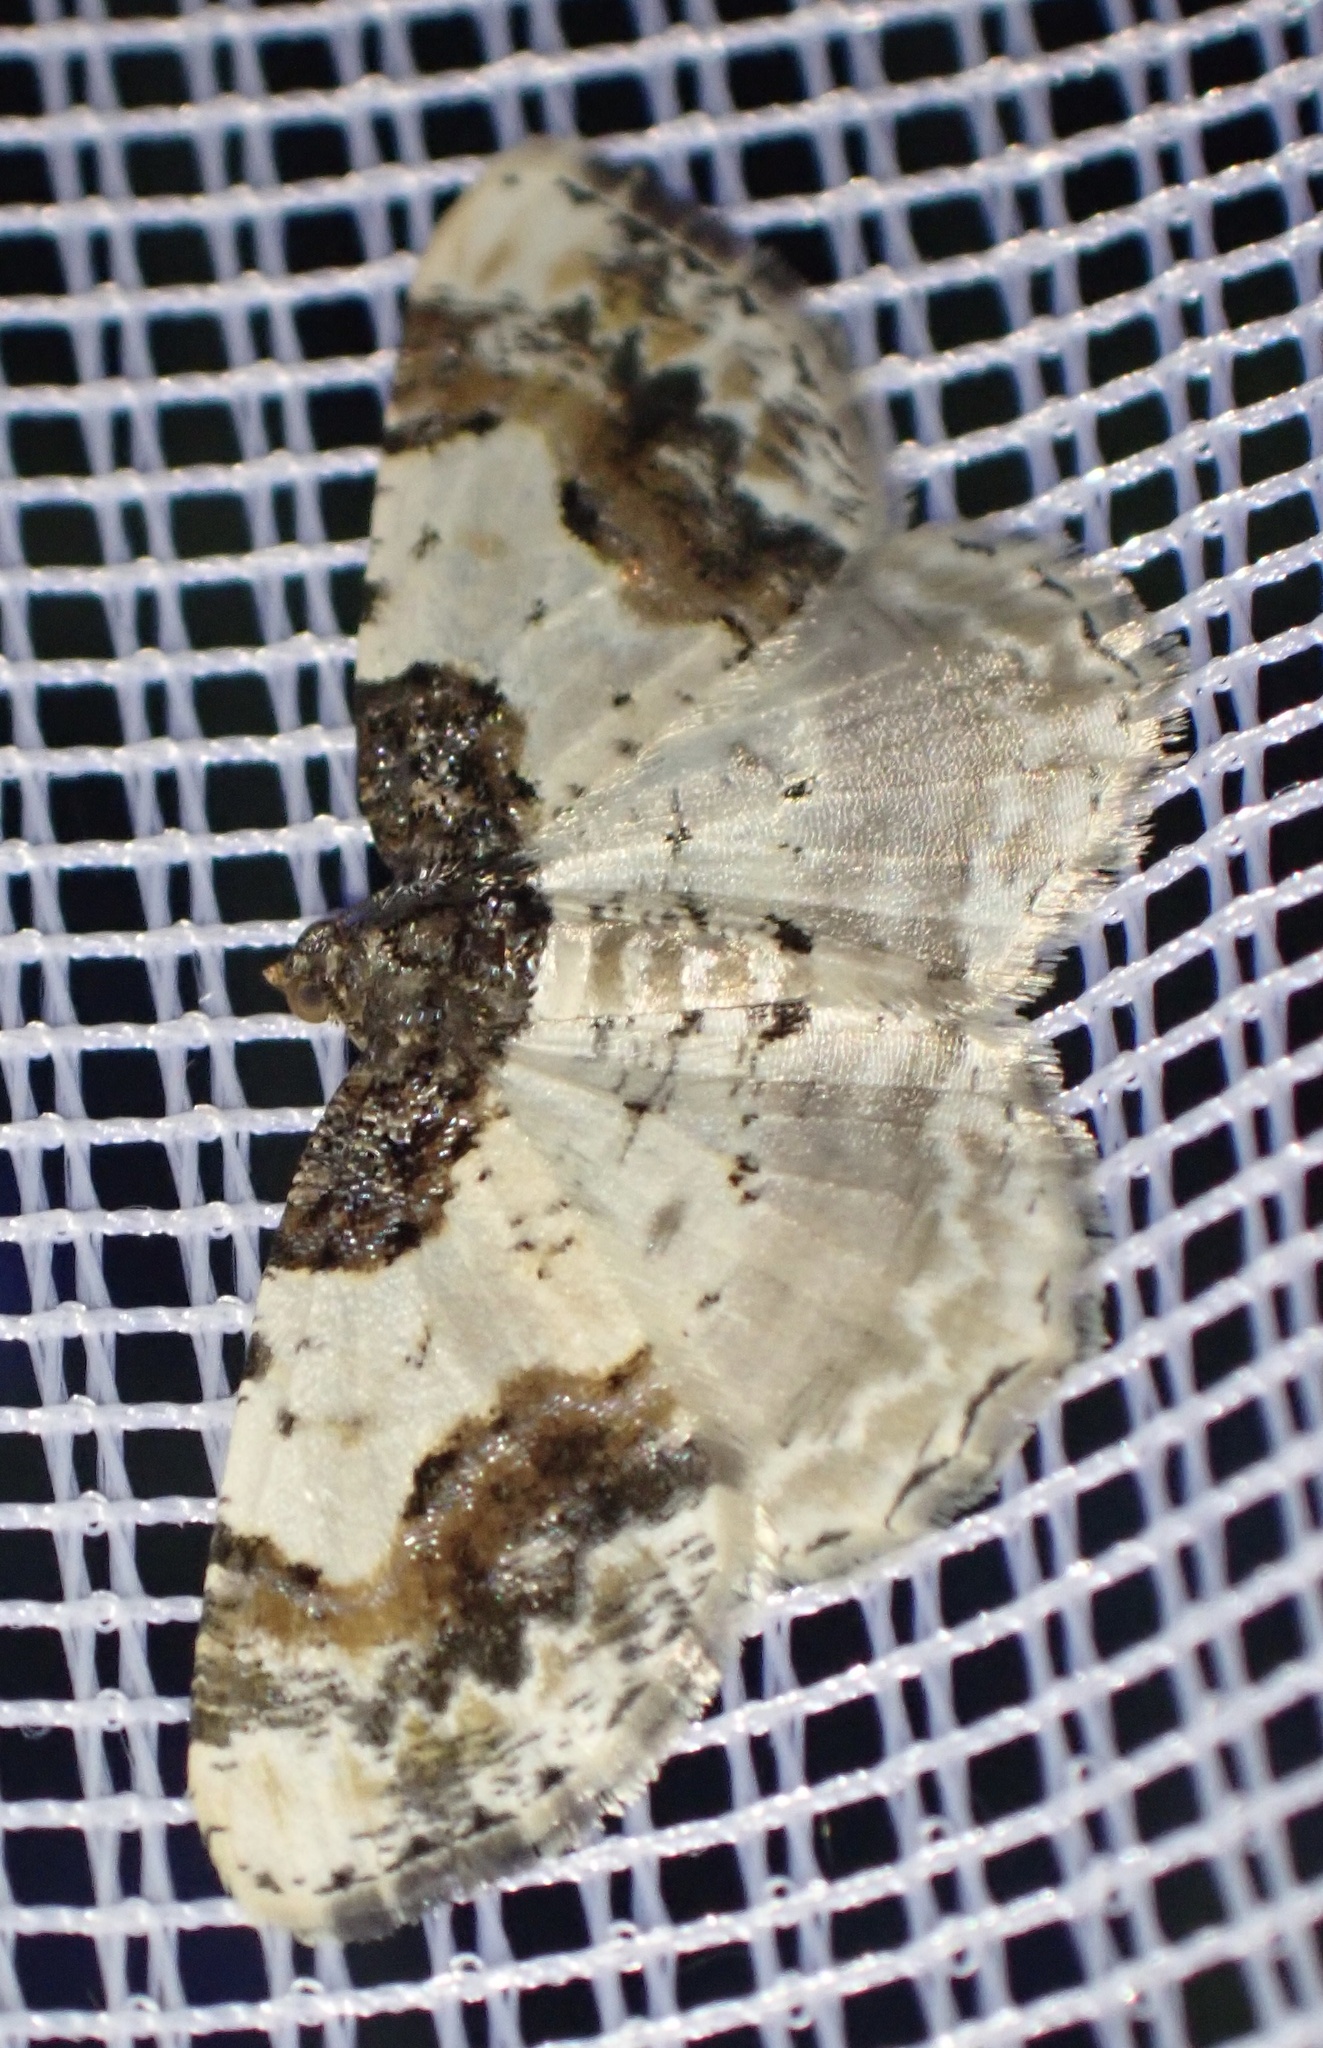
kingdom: Animalia
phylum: Arthropoda
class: Insecta
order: Lepidoptera
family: Geometridae
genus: Ligdia
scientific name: Ligdia adustata
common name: Scorched carpet
